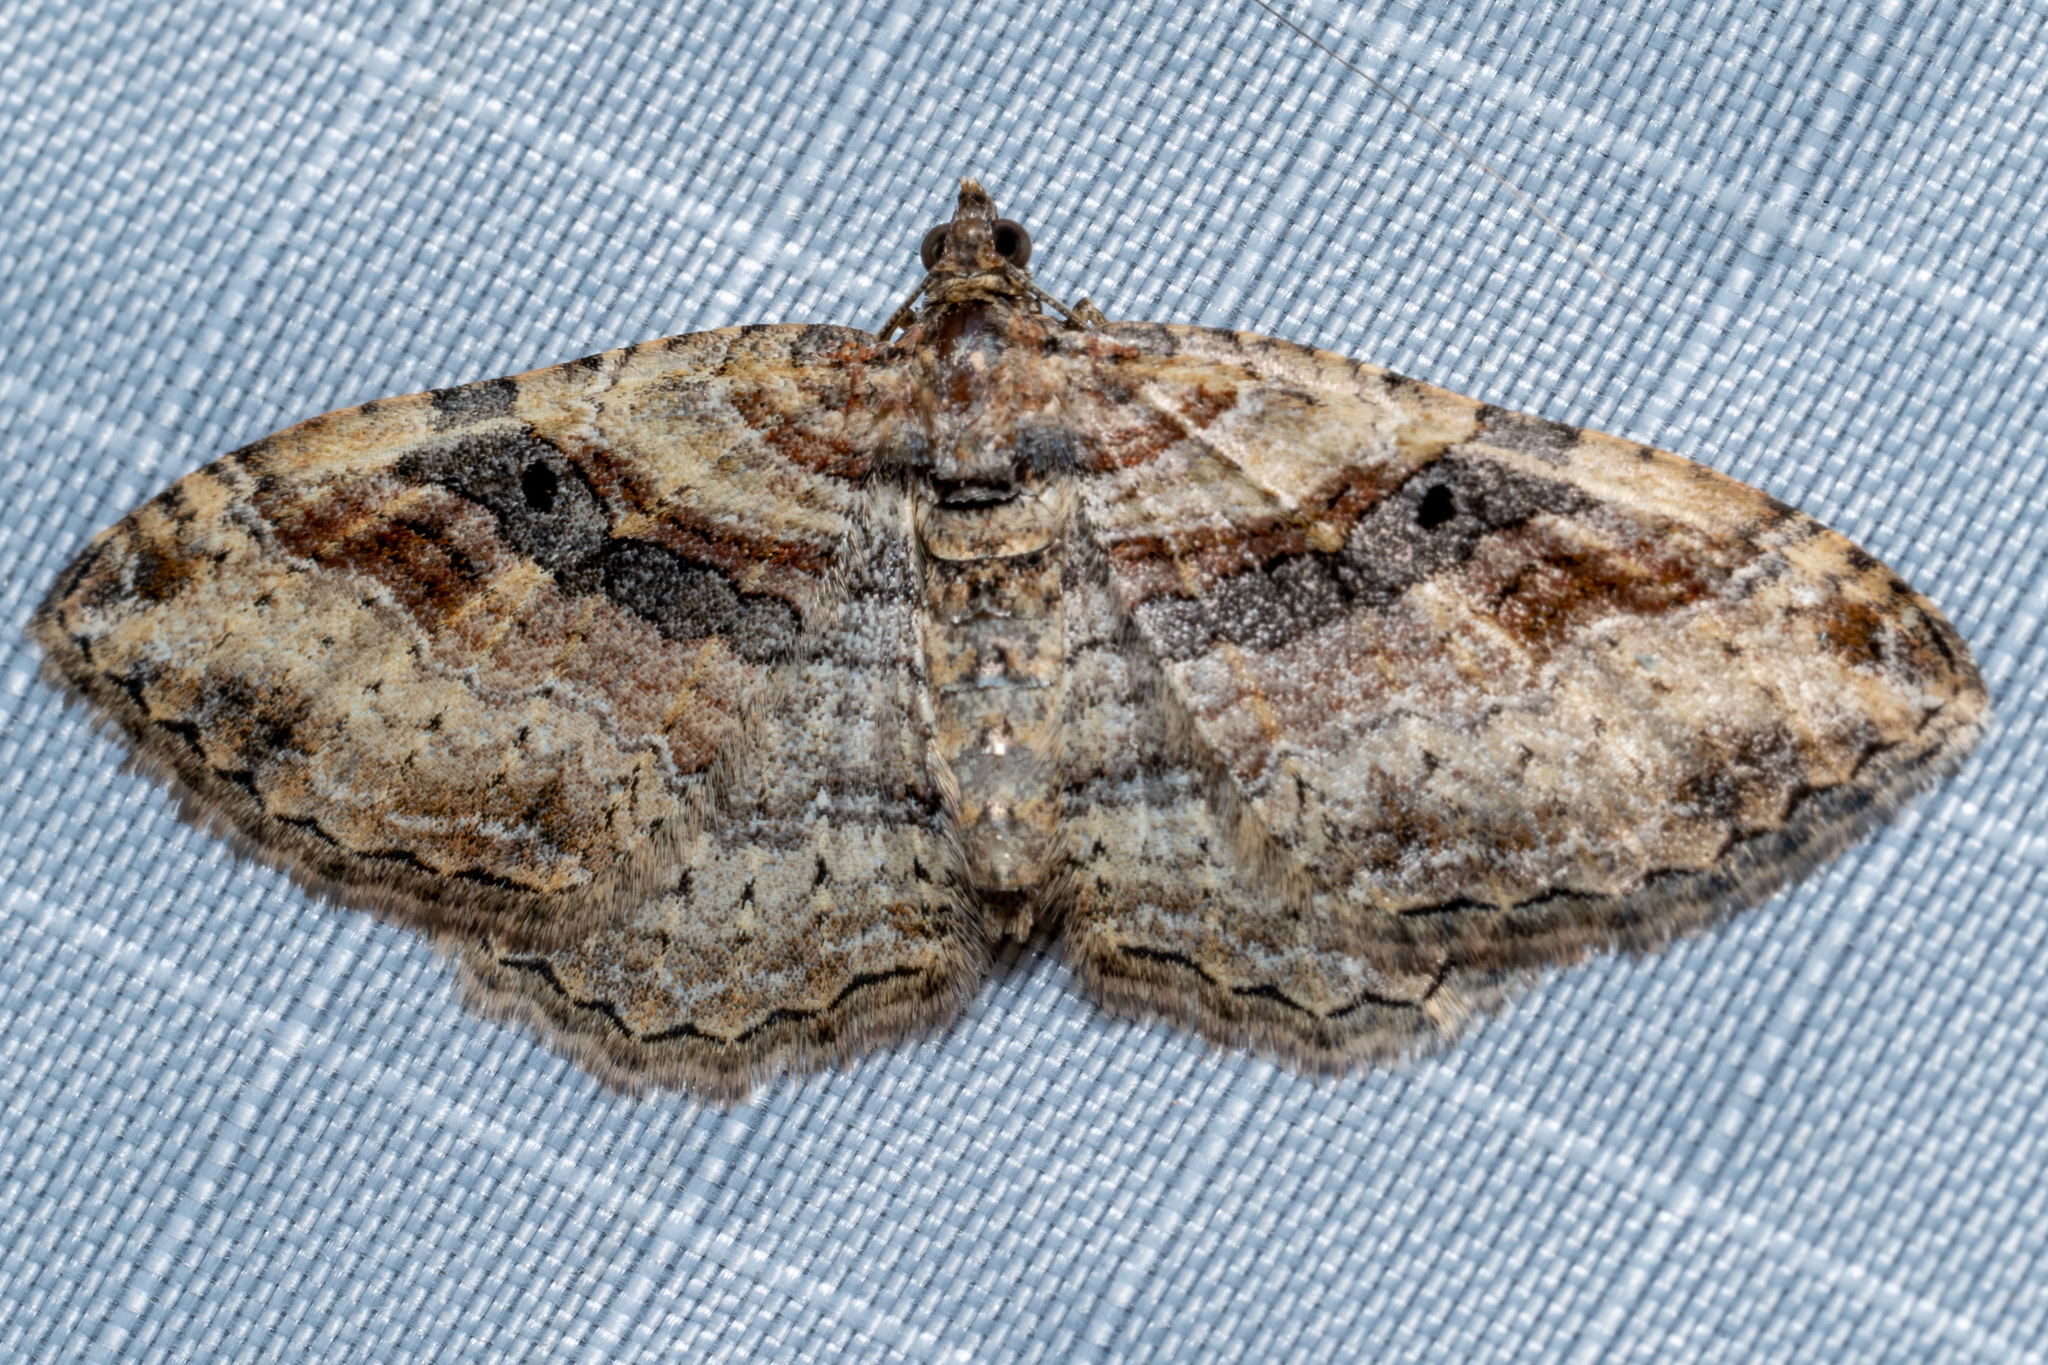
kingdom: Animalia
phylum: Arthropoda
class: Insecta
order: Lepidoptera
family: Geometridae
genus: Costaconvexa
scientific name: Costaconvexa centrostrigaria
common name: Bent-line carpet
